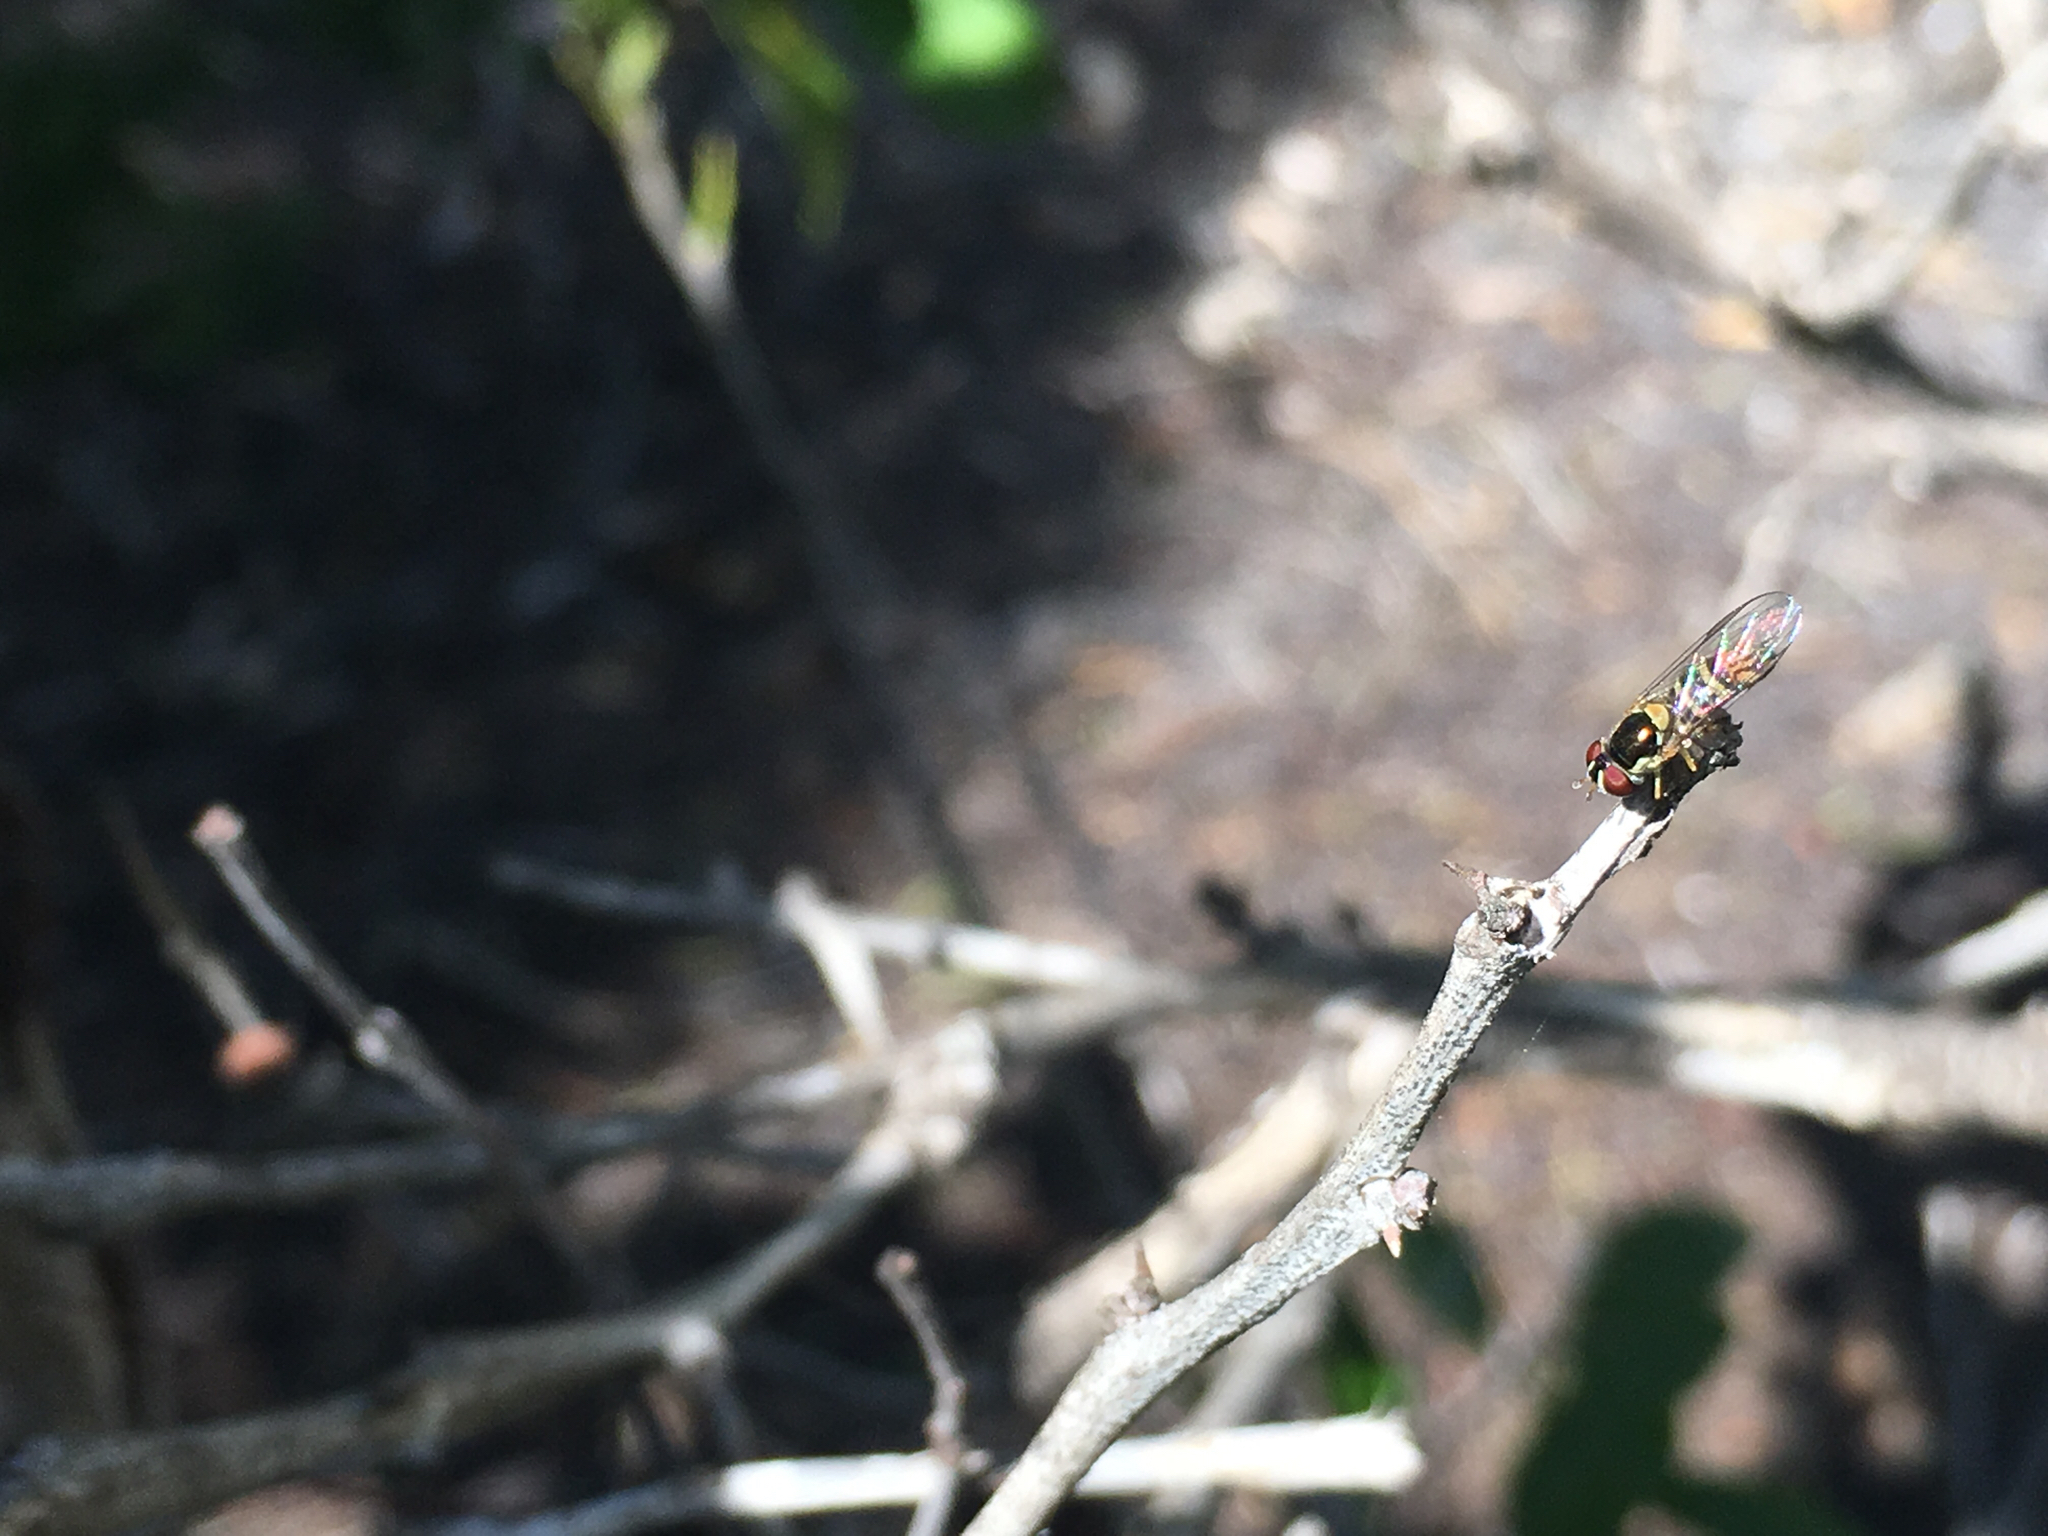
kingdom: Animalia
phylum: Arthropoda
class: Insecta
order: Diptera
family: Syrphidae
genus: Allograpta
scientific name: Allograpta
